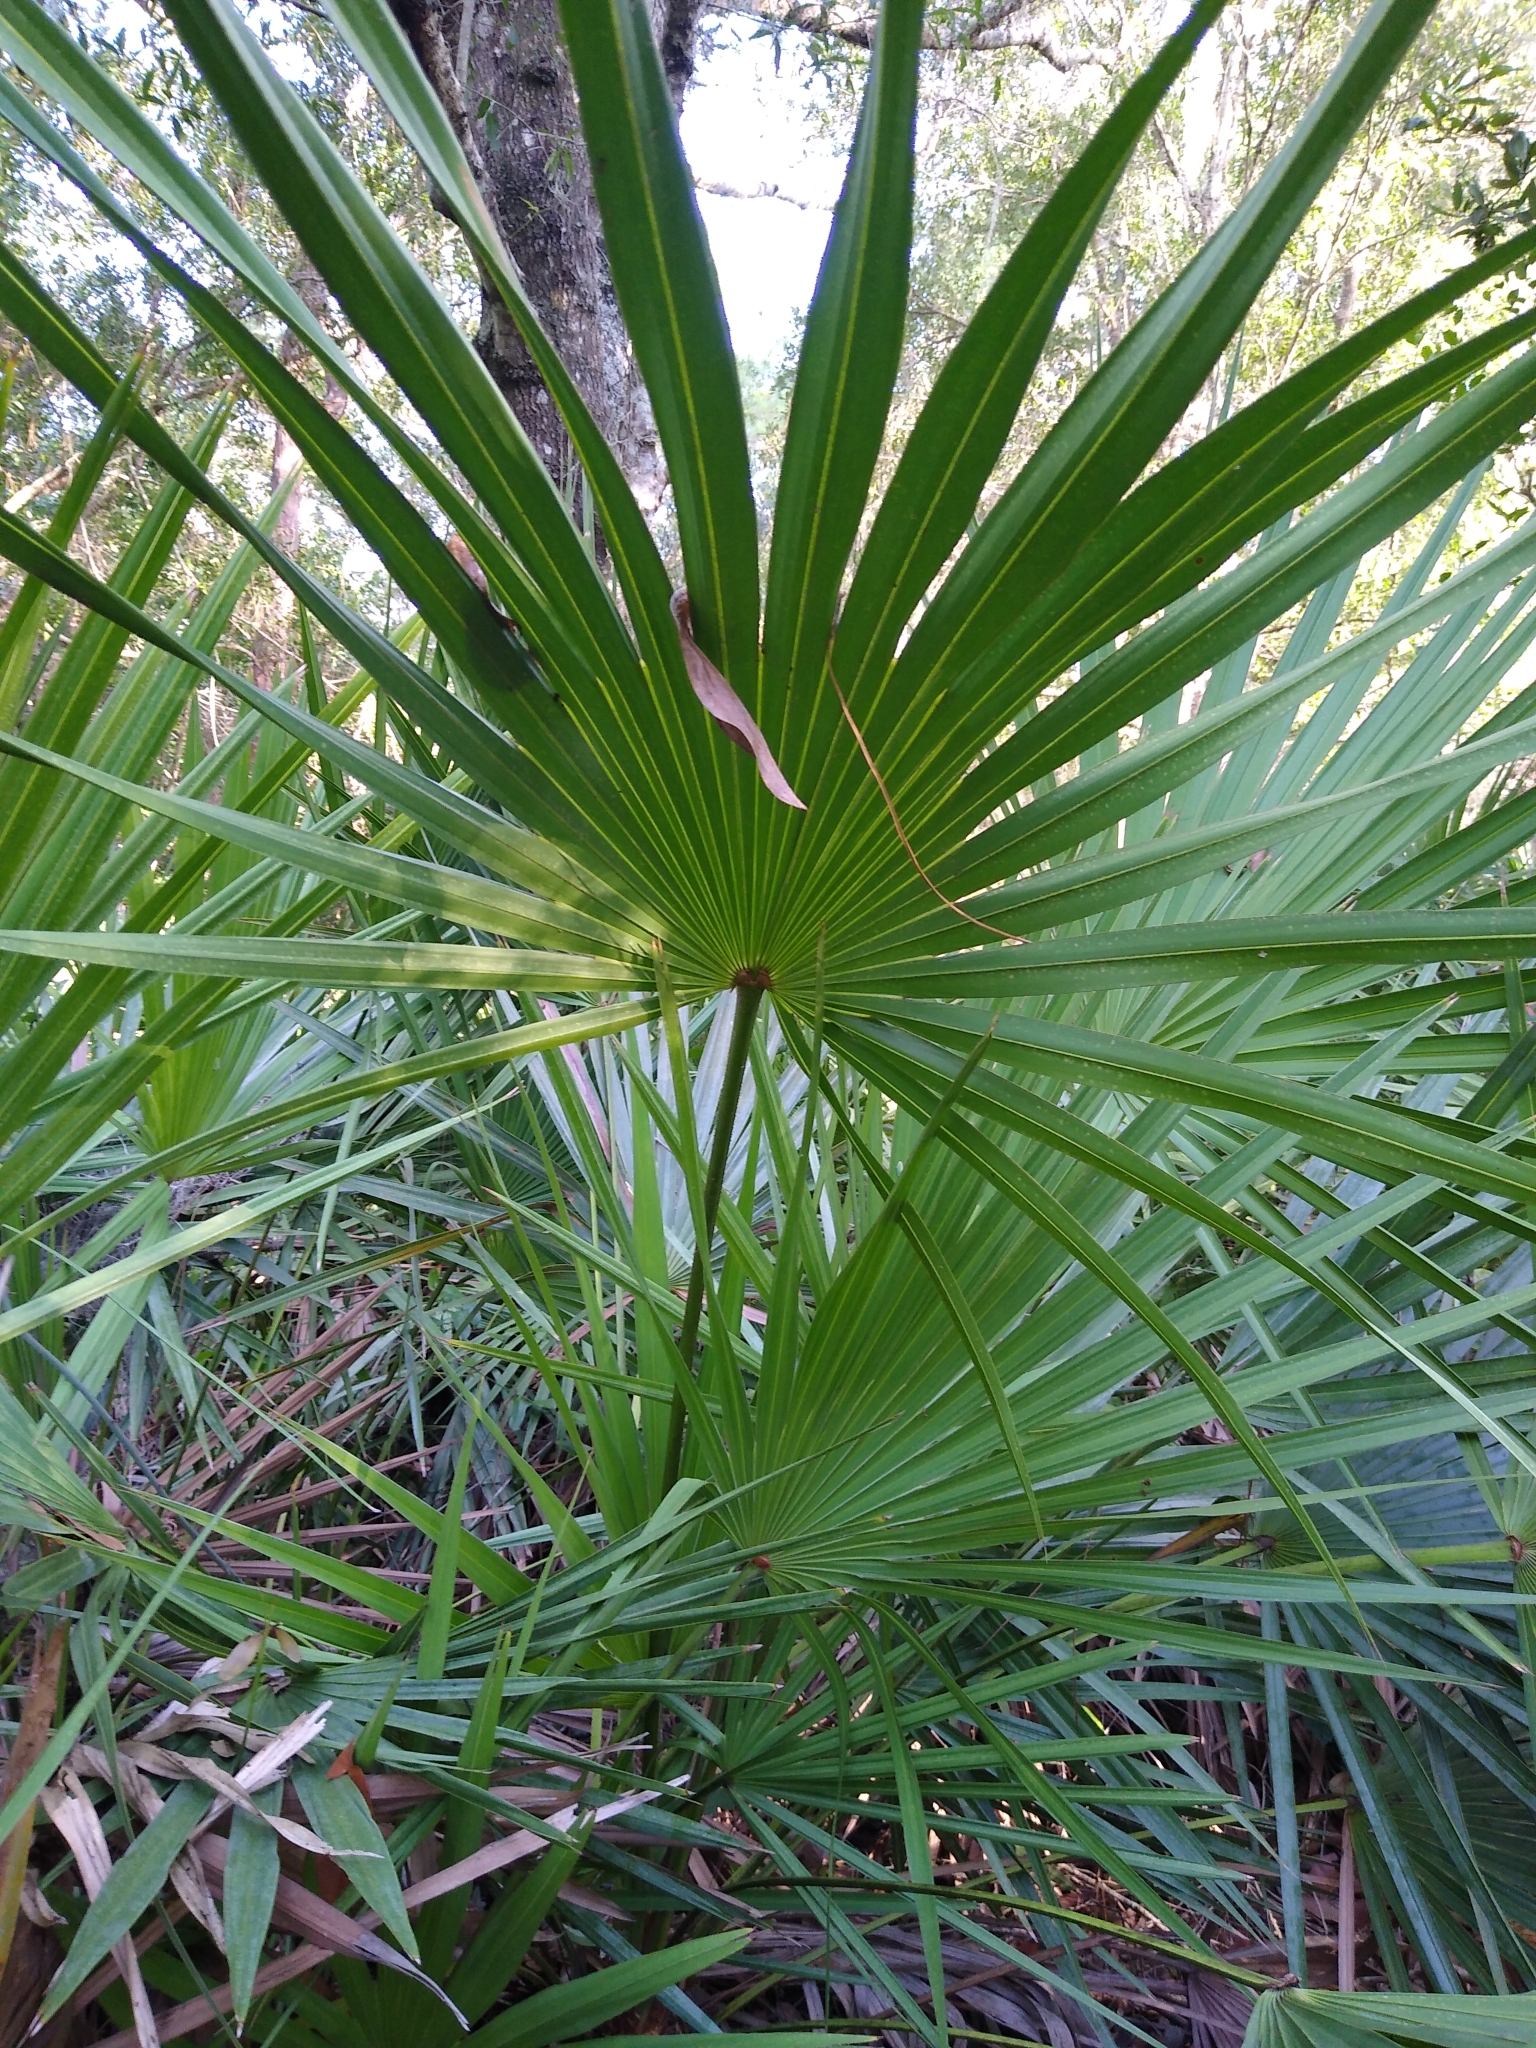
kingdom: Plantae
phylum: Tracheophyta
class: Liliopsida
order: Arecales
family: Arecaceae
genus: Serenoa
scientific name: Serenoa repens
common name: Saw-palmetto
